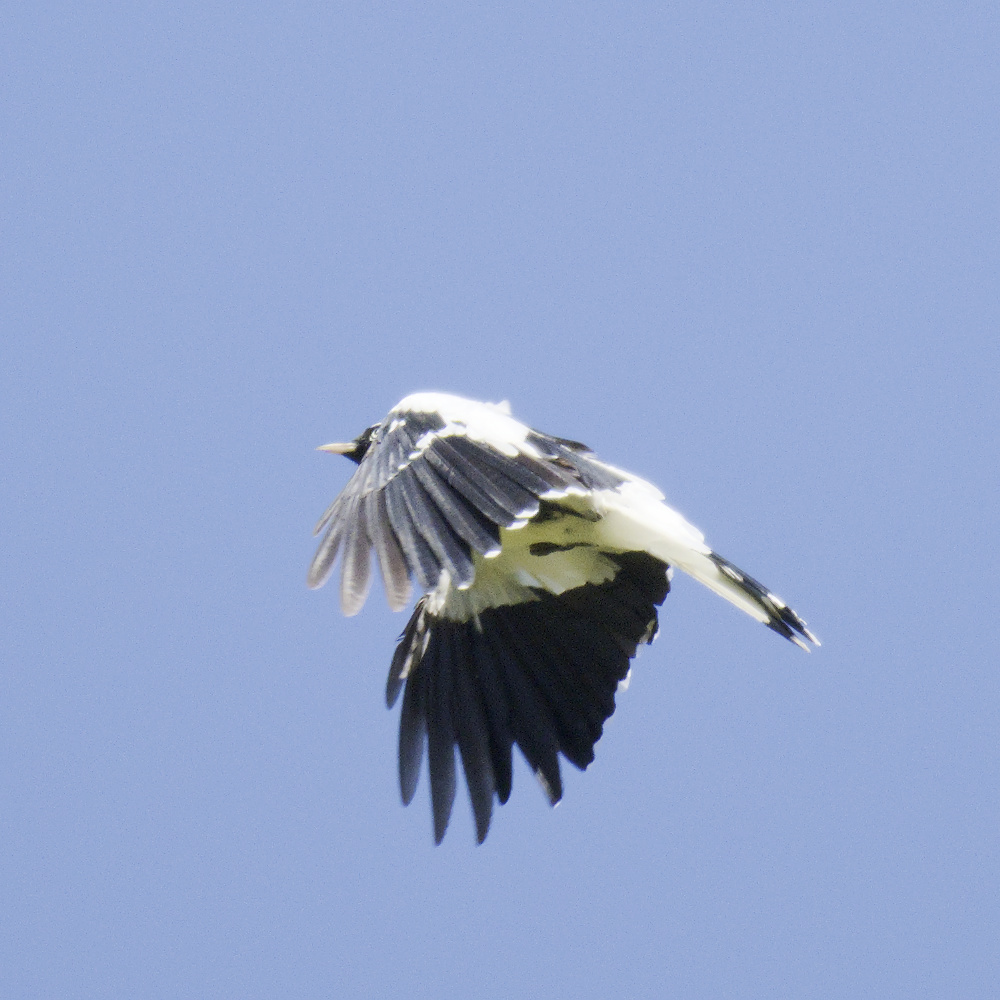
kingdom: Animalia
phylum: Chordata
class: Aves
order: Passeriformes
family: Monarchidae
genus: Grallina
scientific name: Grallina cyanoleuca
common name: Magpie-lark
